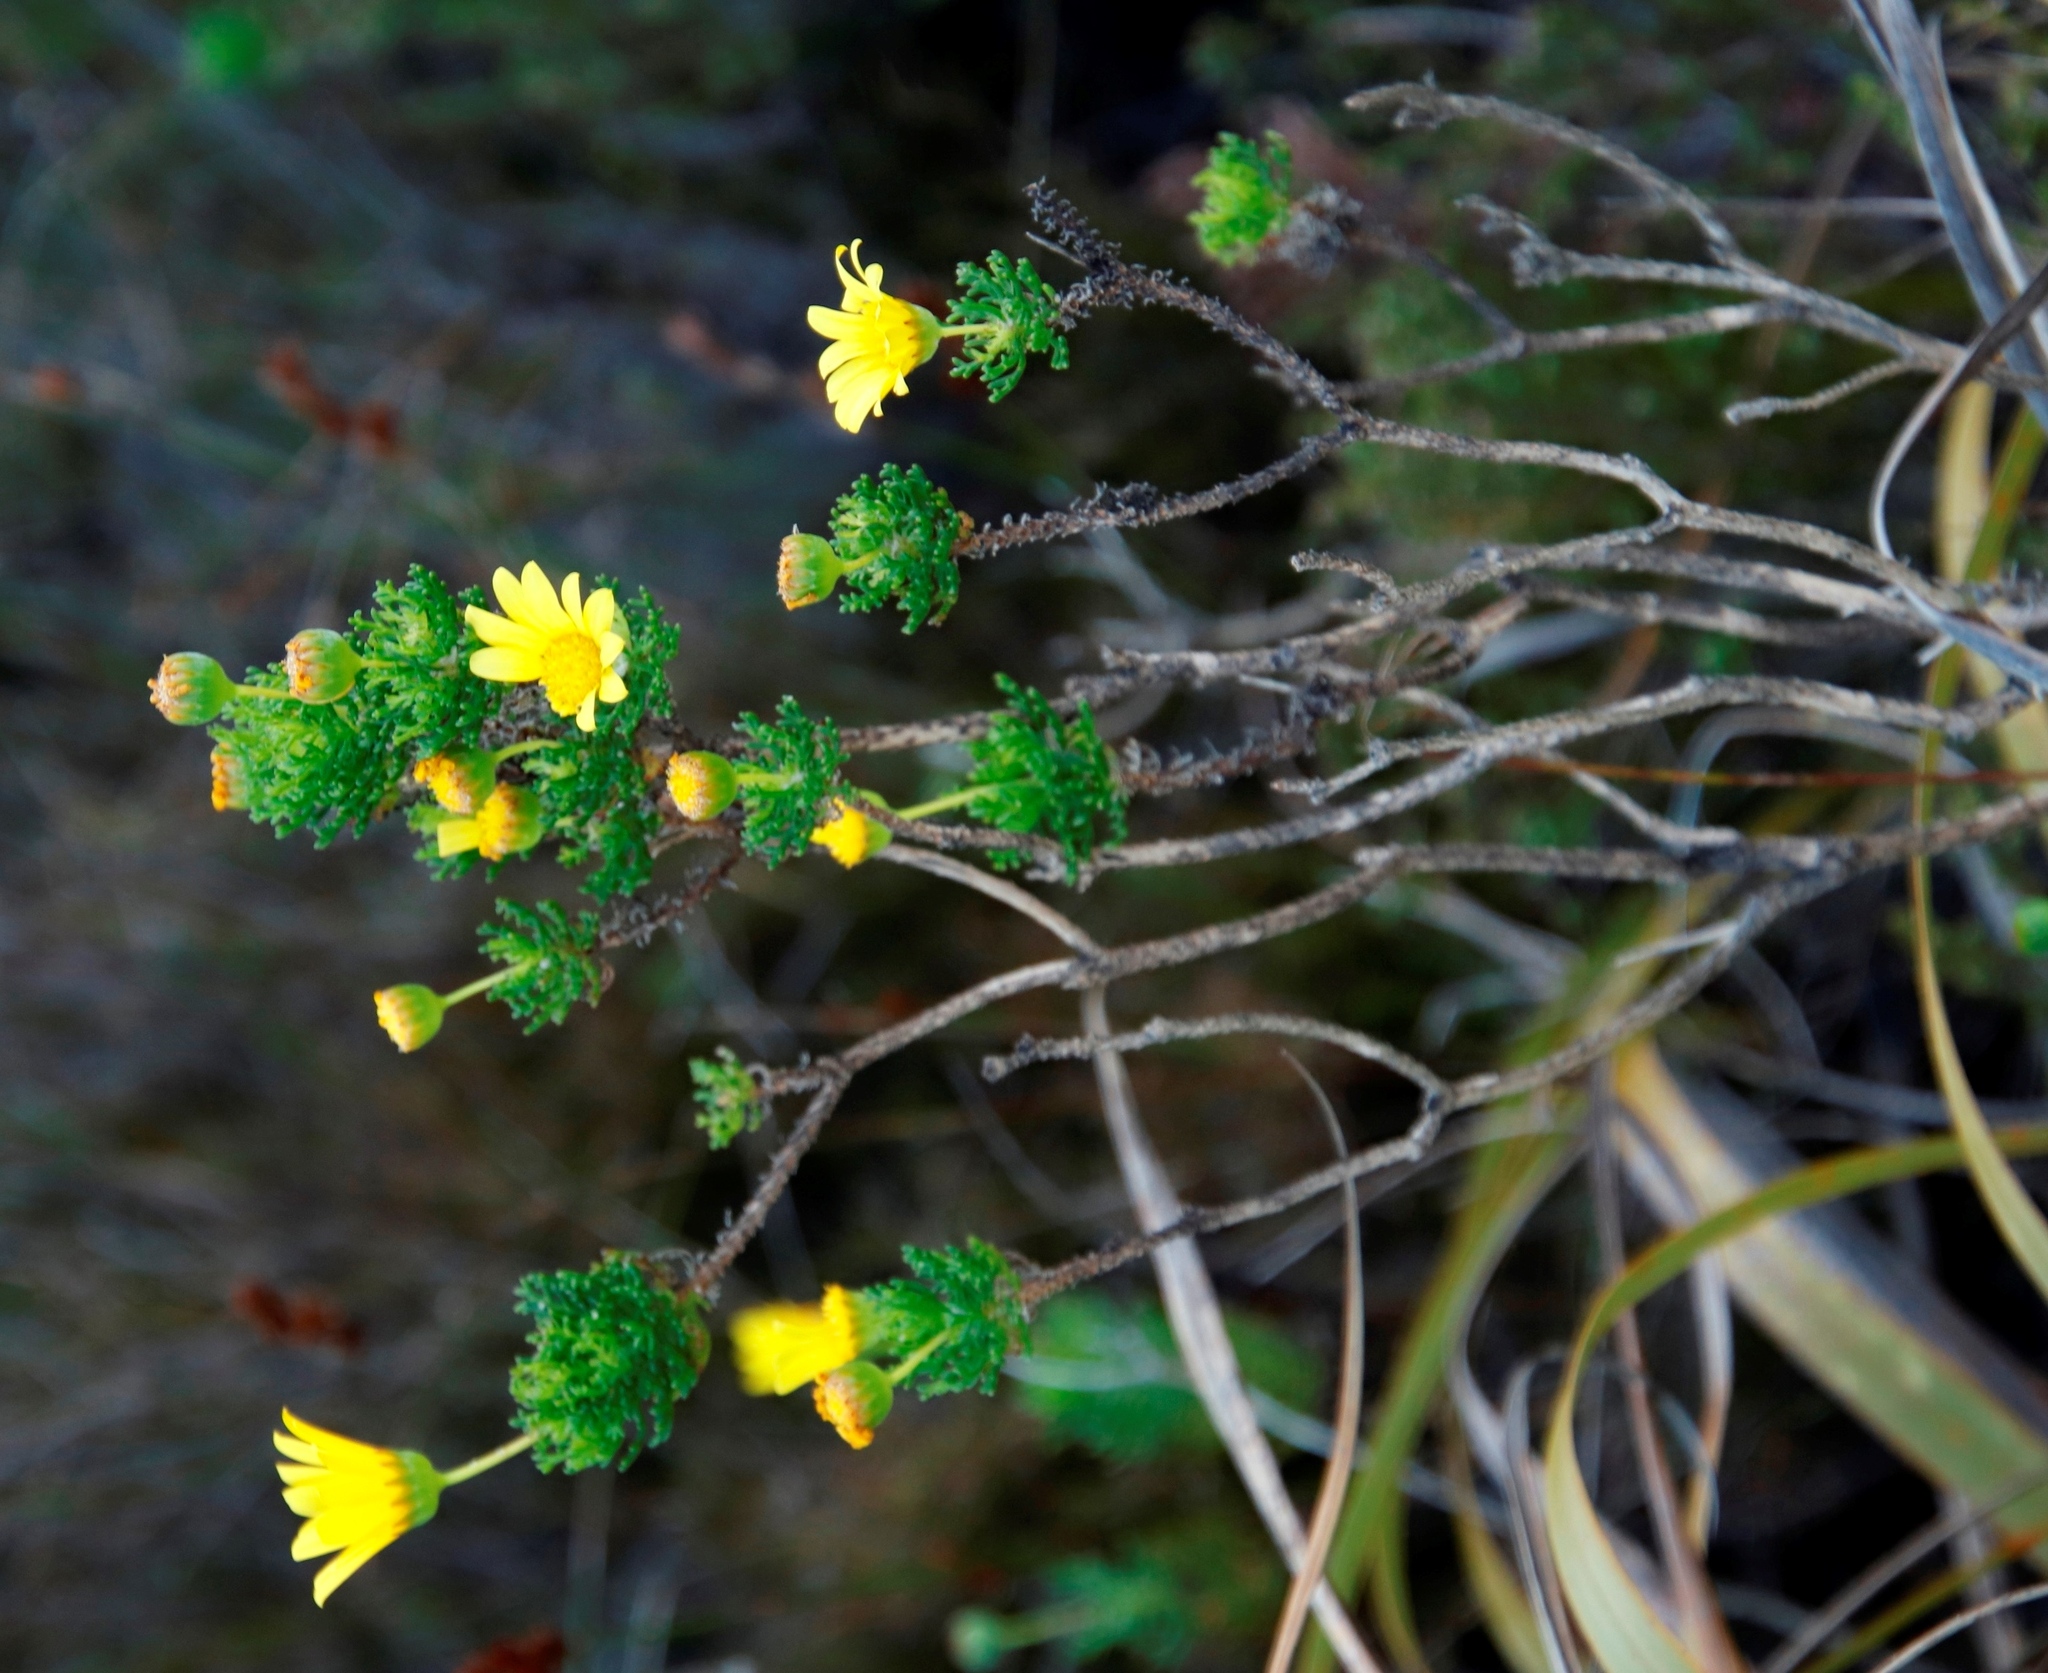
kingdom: Plantae
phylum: Tracheophyta
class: Magnoliopsida
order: Asterales
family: Asteraceae
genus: Euryops
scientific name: Euryops abrotanifolius
